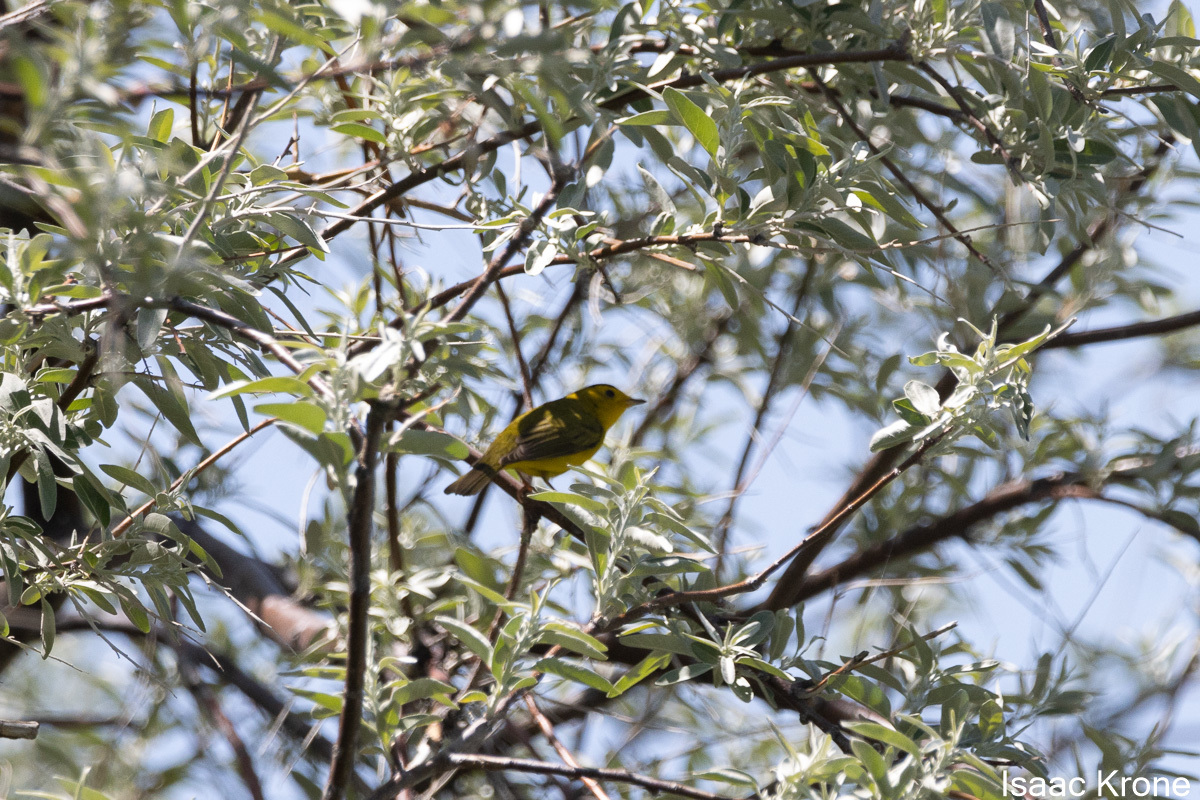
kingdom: Animalia
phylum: Chordata
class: Aves
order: Passeriformes
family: Parulidae
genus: Cardellina
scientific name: Cardellina pusilla
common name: Wilson's warbler
